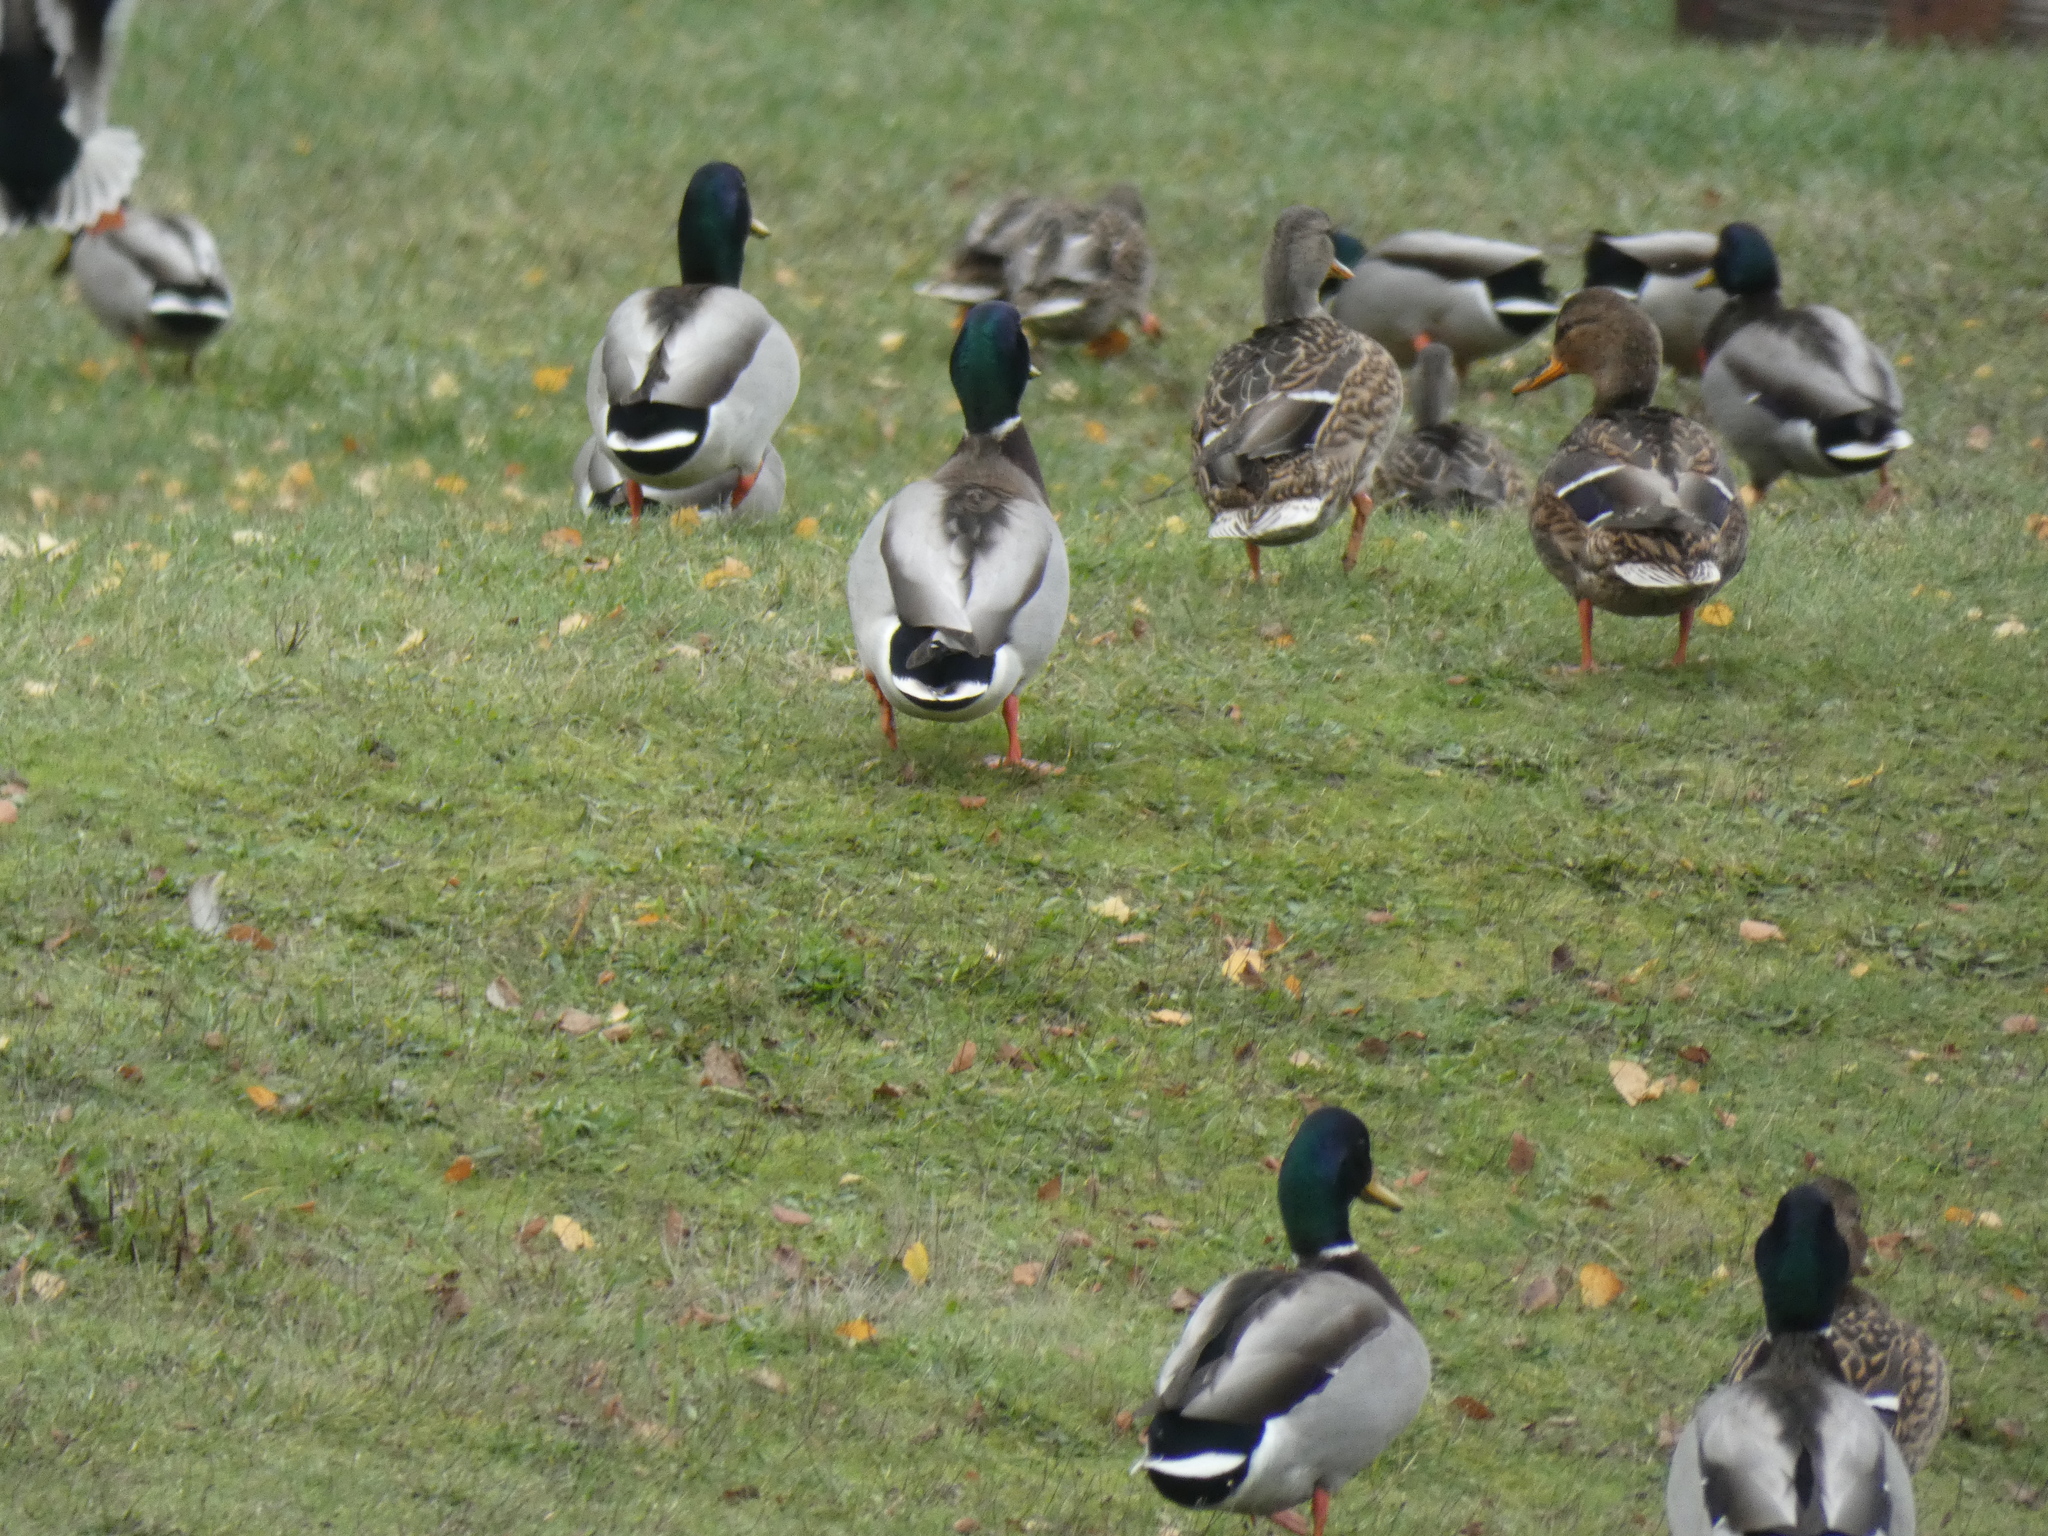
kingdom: Animalia
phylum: Chordata
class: Aves
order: Anseriformes
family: Anatidae
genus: Anas
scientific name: Anas platyrhynchos
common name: Mallard
